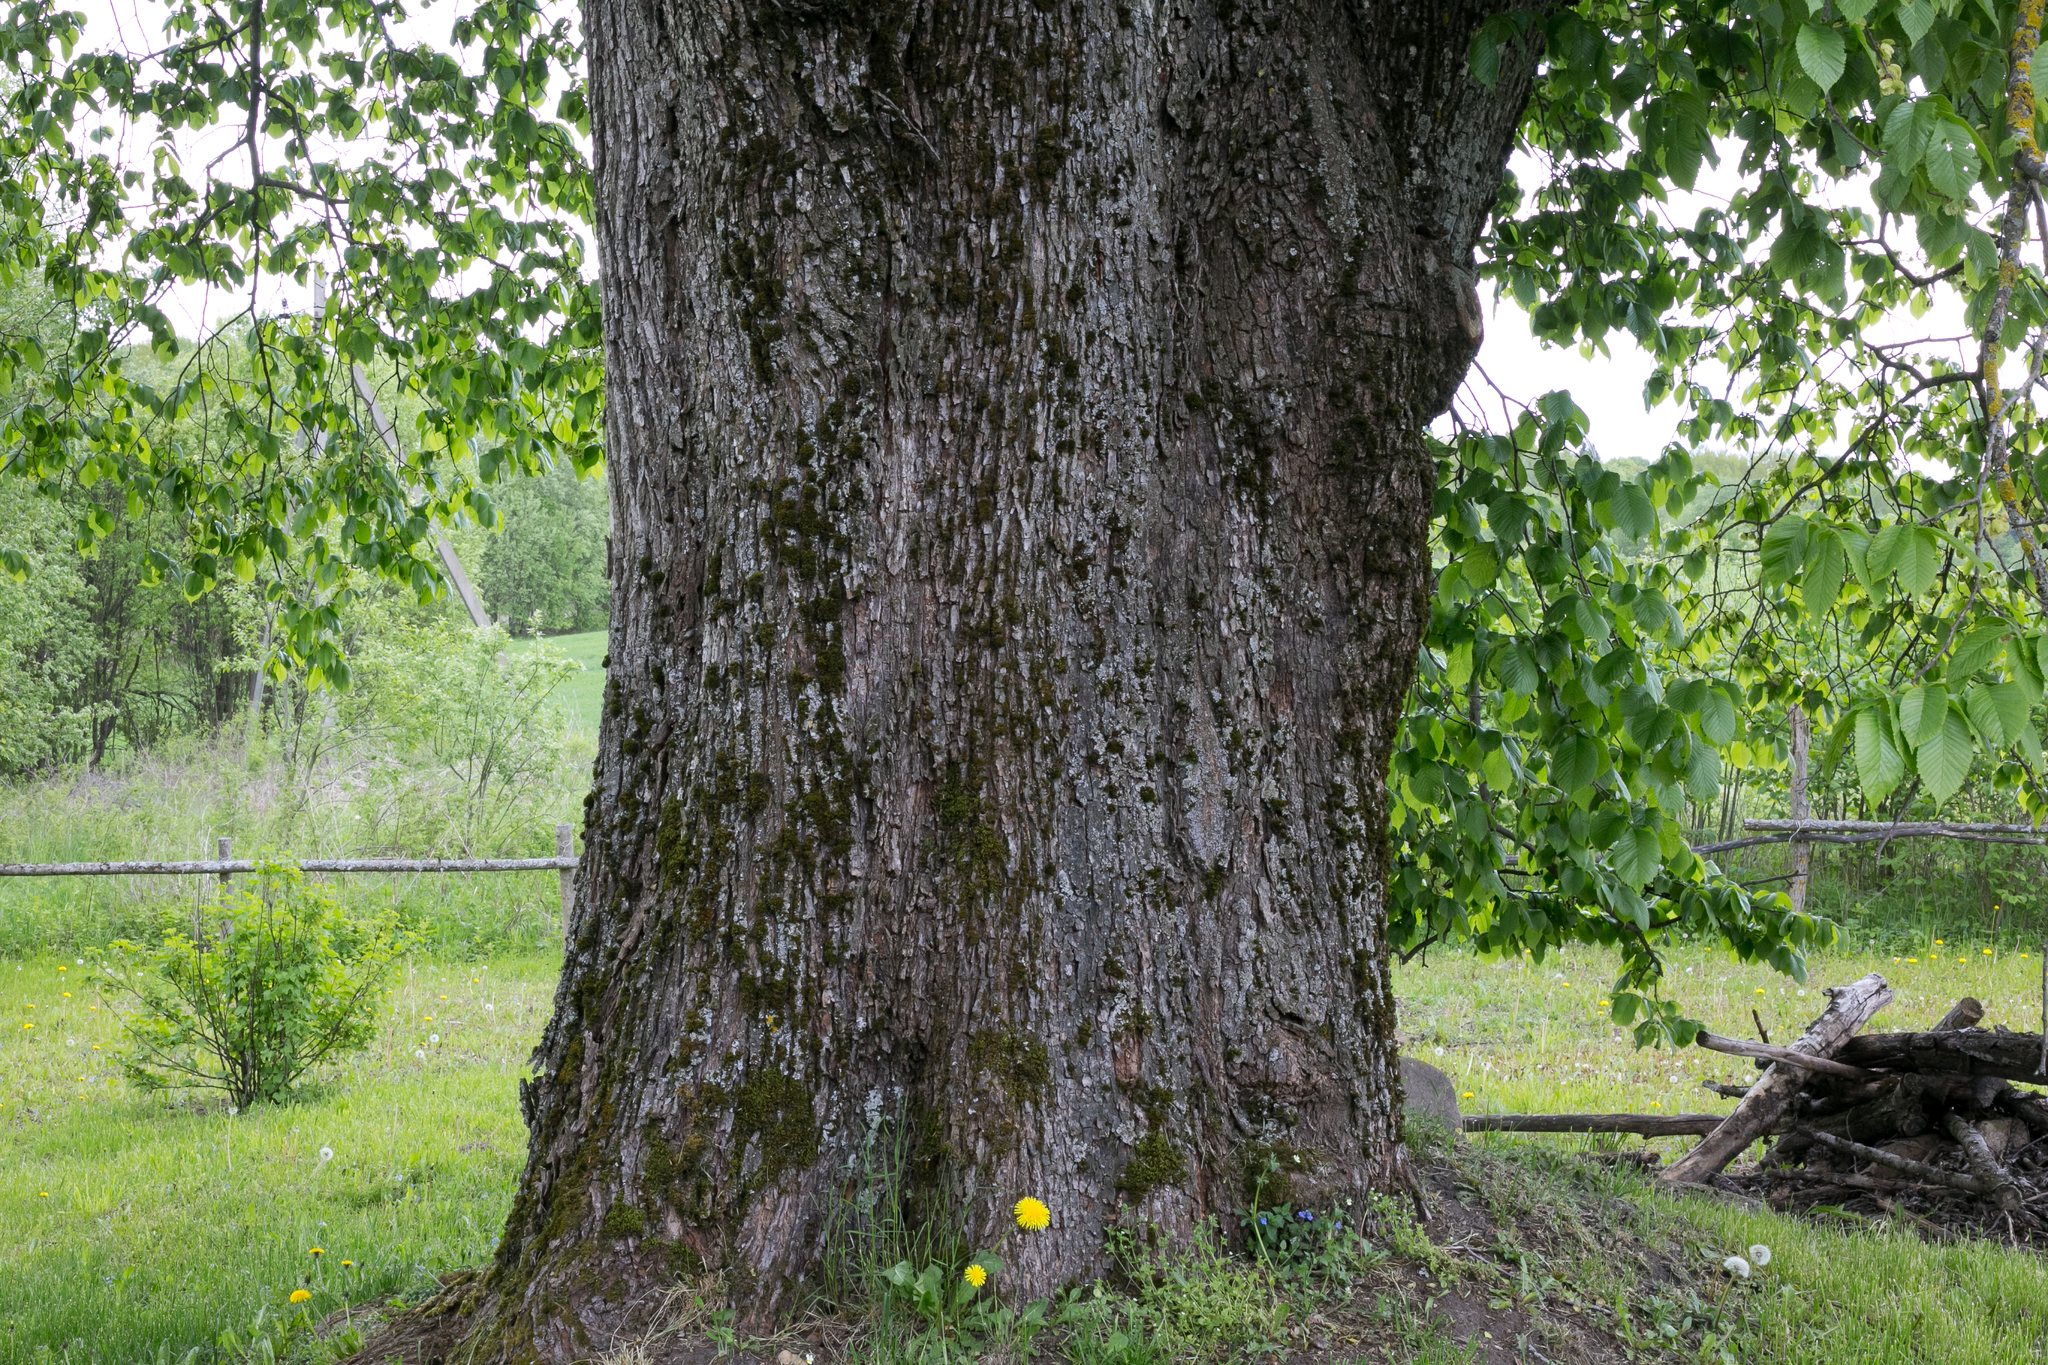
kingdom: Plantae
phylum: Tracheophyta
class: Magnoliopsida
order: Rosales
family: Ulmaceae
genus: Ulmus
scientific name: Ulmus glabra
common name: Wych elm
